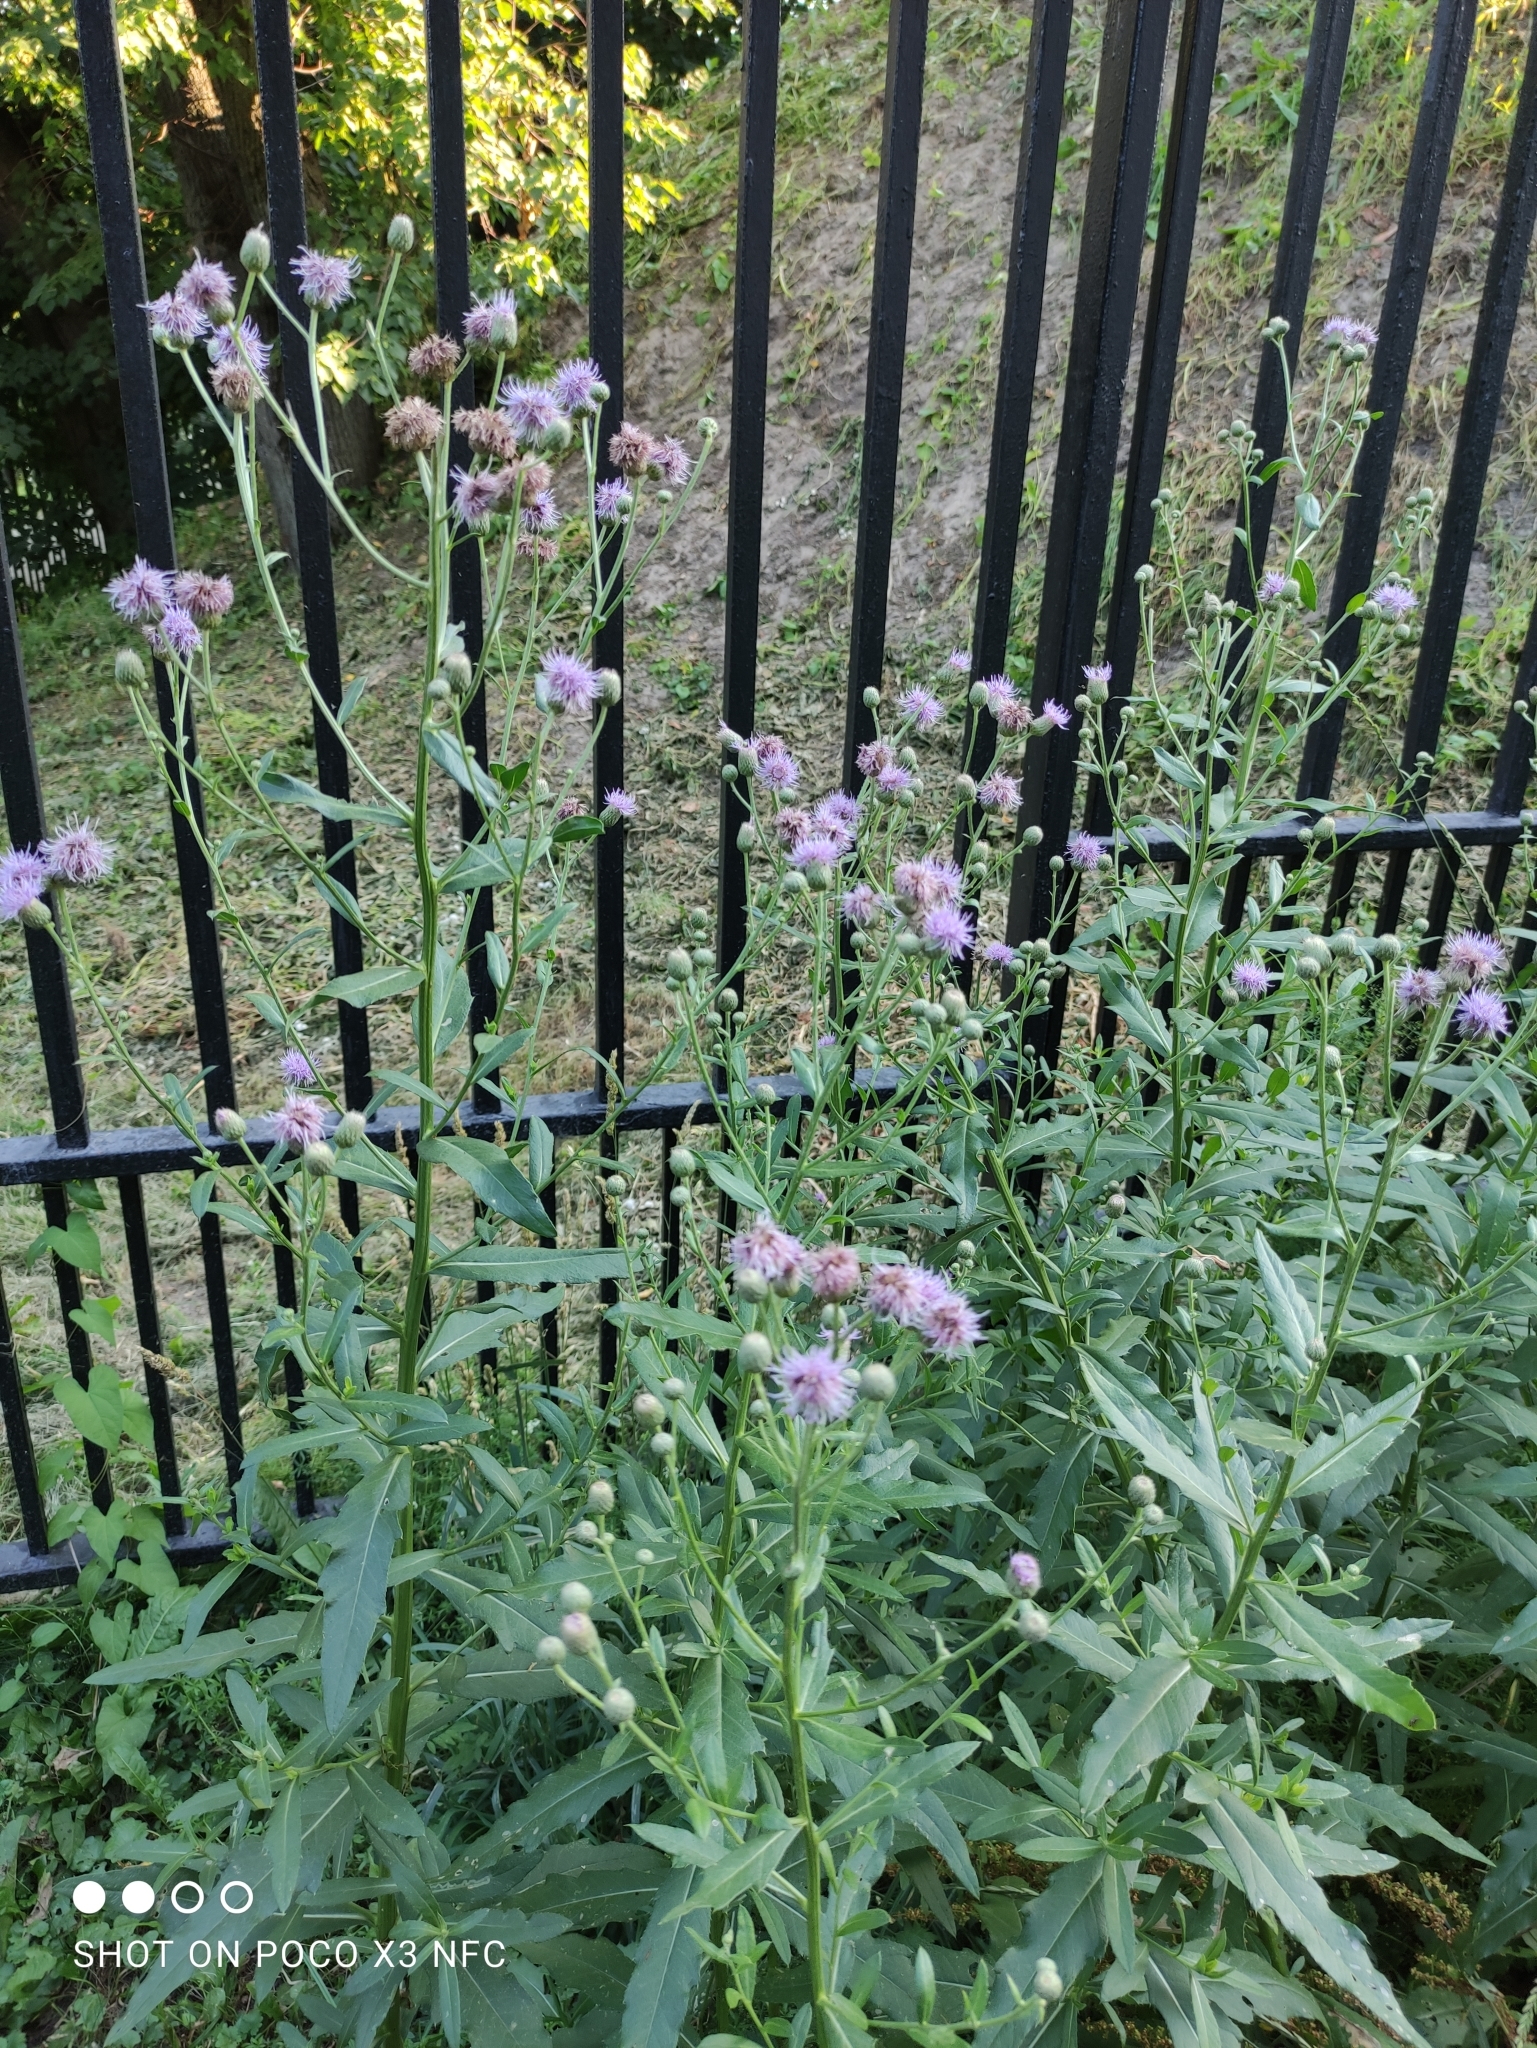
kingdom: Plantae
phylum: Tracheophyta
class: Magnoliopsida
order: Asterales
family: Asteraceae
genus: Cirsium
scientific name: Cirsium arvense
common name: Creeping thistle
